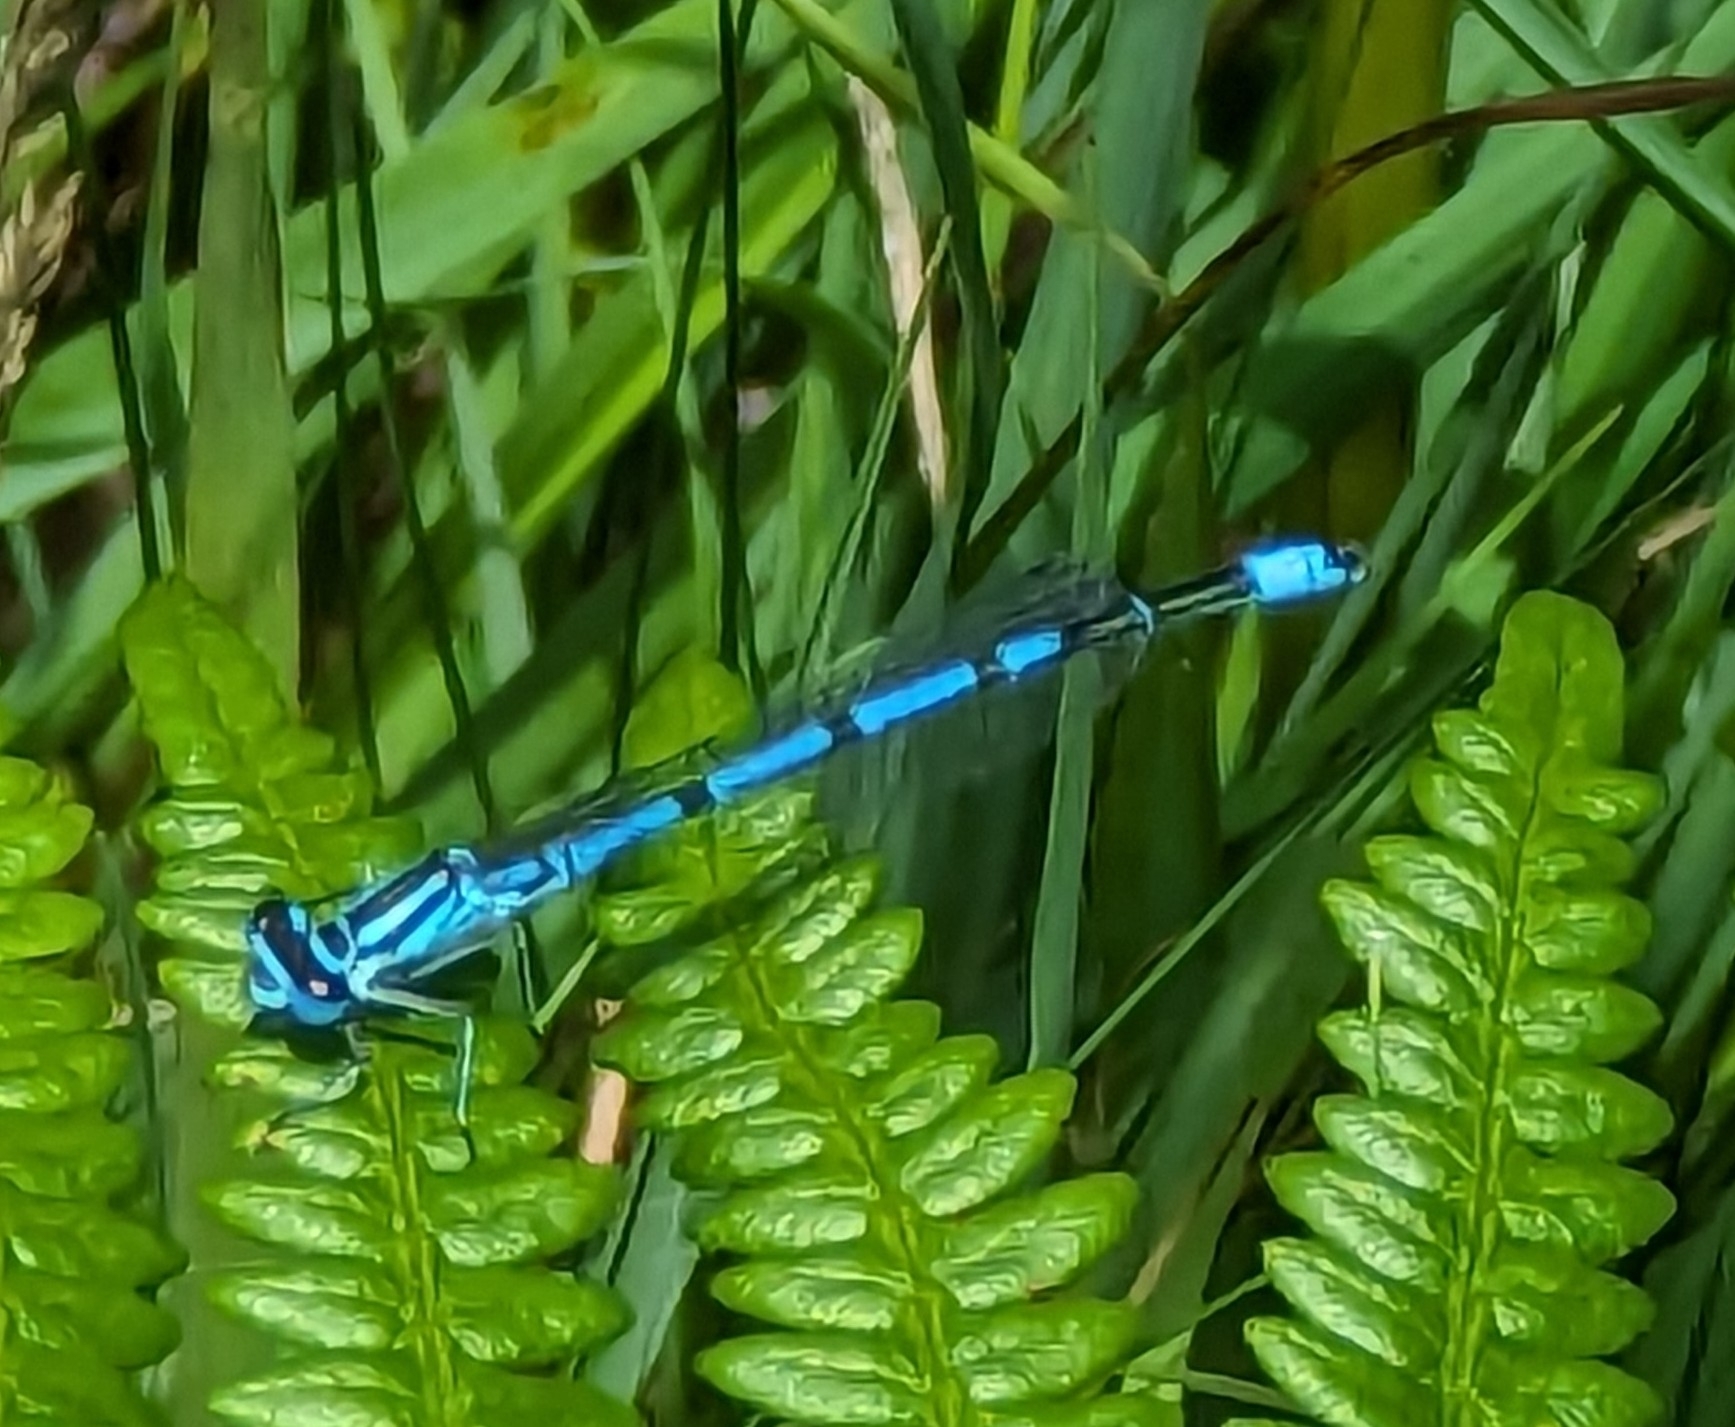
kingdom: Animalia
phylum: Arthropoda
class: Insecta
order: Odonata
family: Coenagrionidae
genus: Coenagrion
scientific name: Coenagrion puella
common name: Azure damselfly
